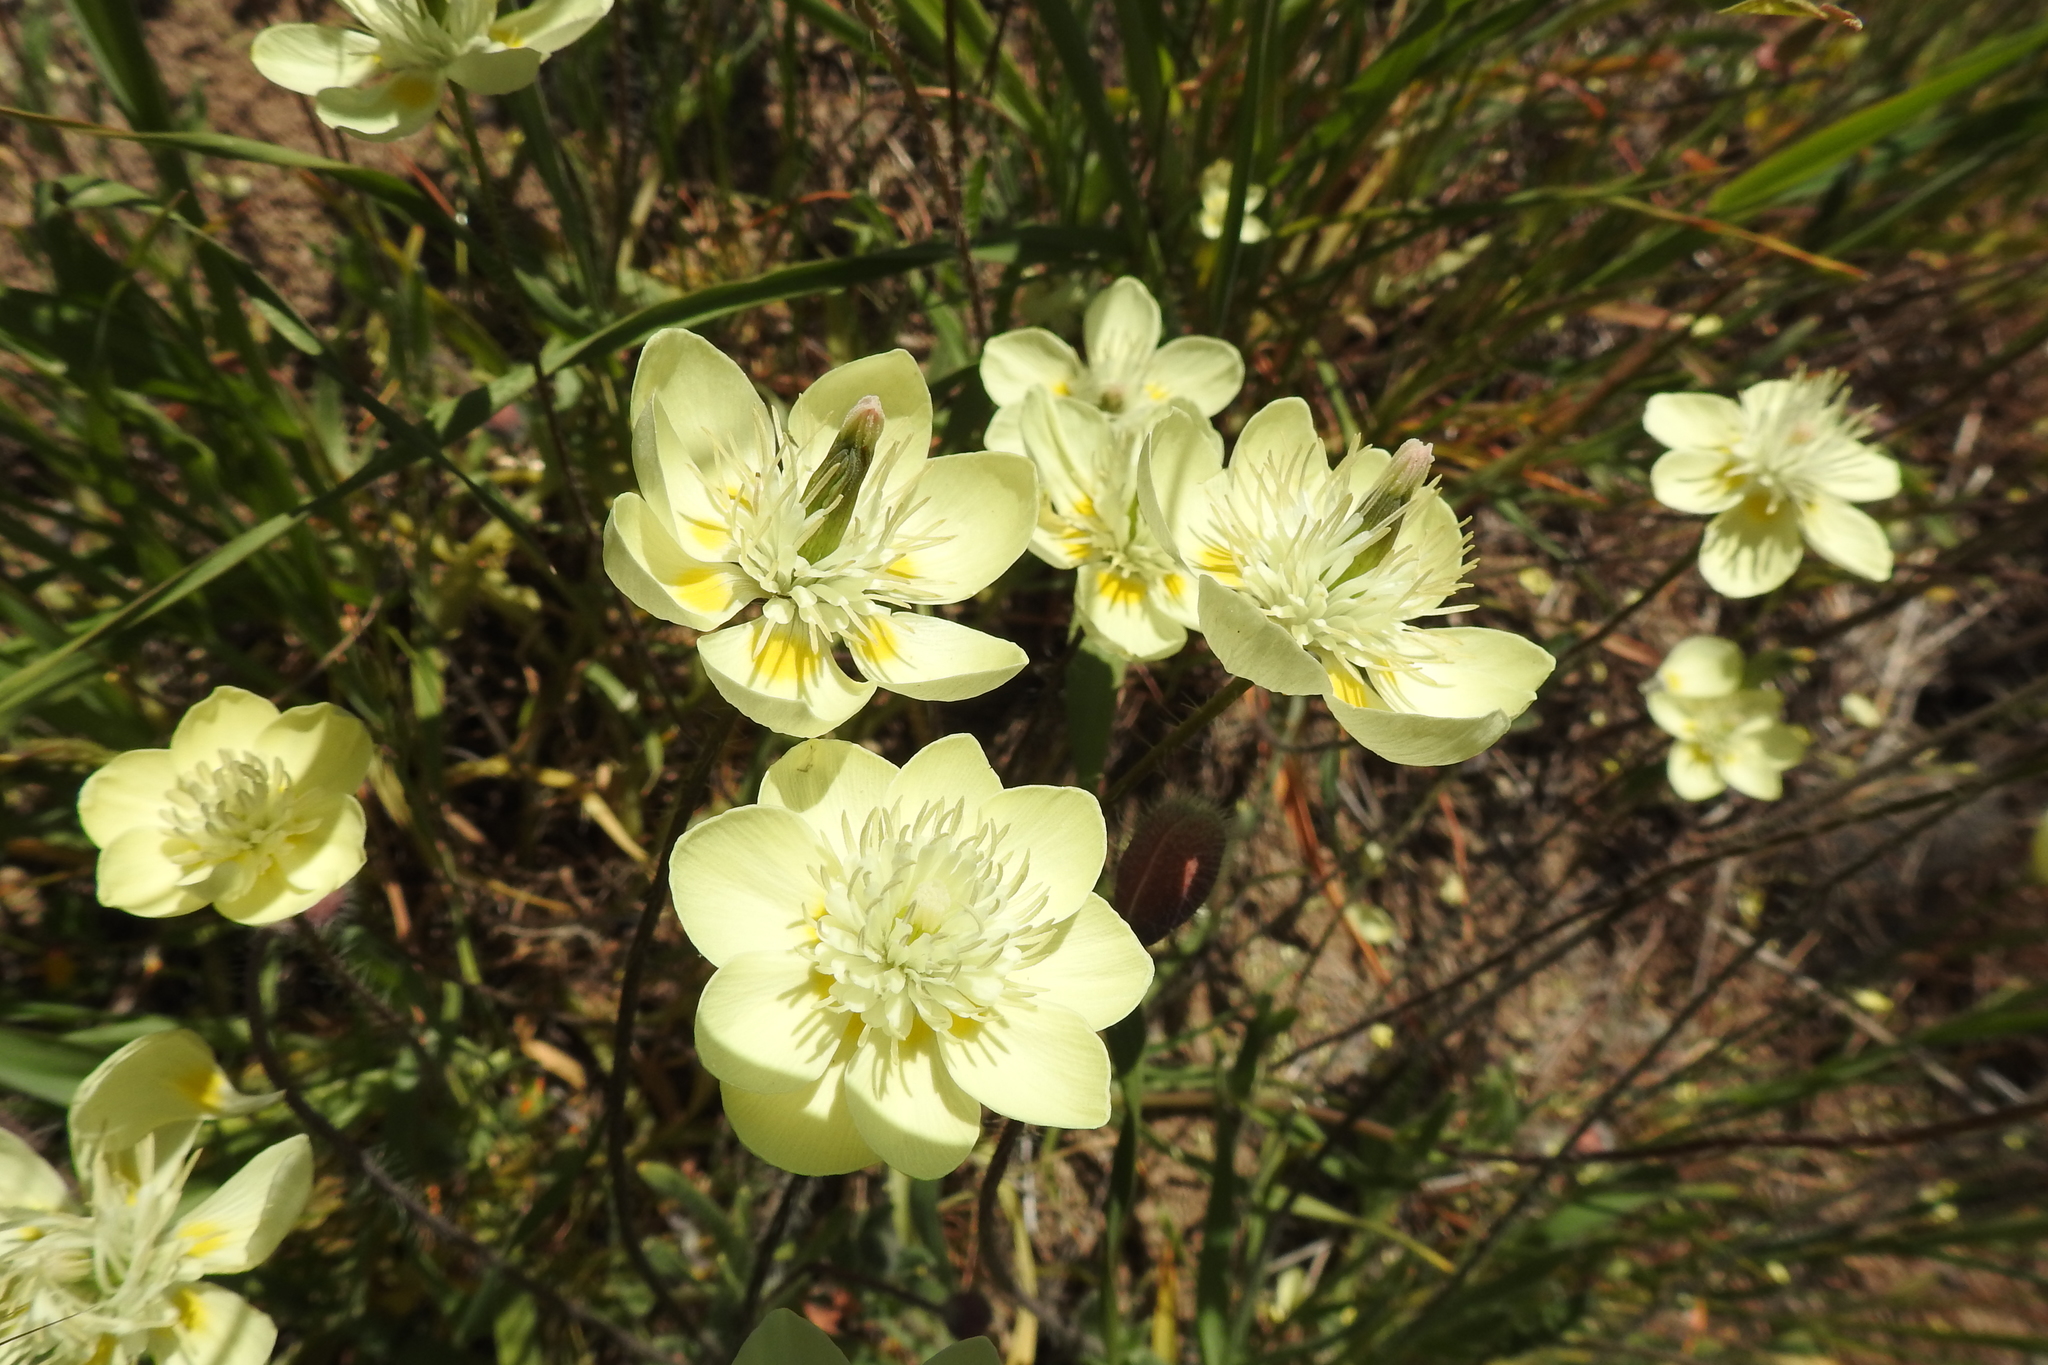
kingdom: Plantae
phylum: Tracheophyta
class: Magnoliopsida
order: Ranunculales
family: Papaveraceae
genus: Platystemon
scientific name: Platystemon californicus
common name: Cream-cups
